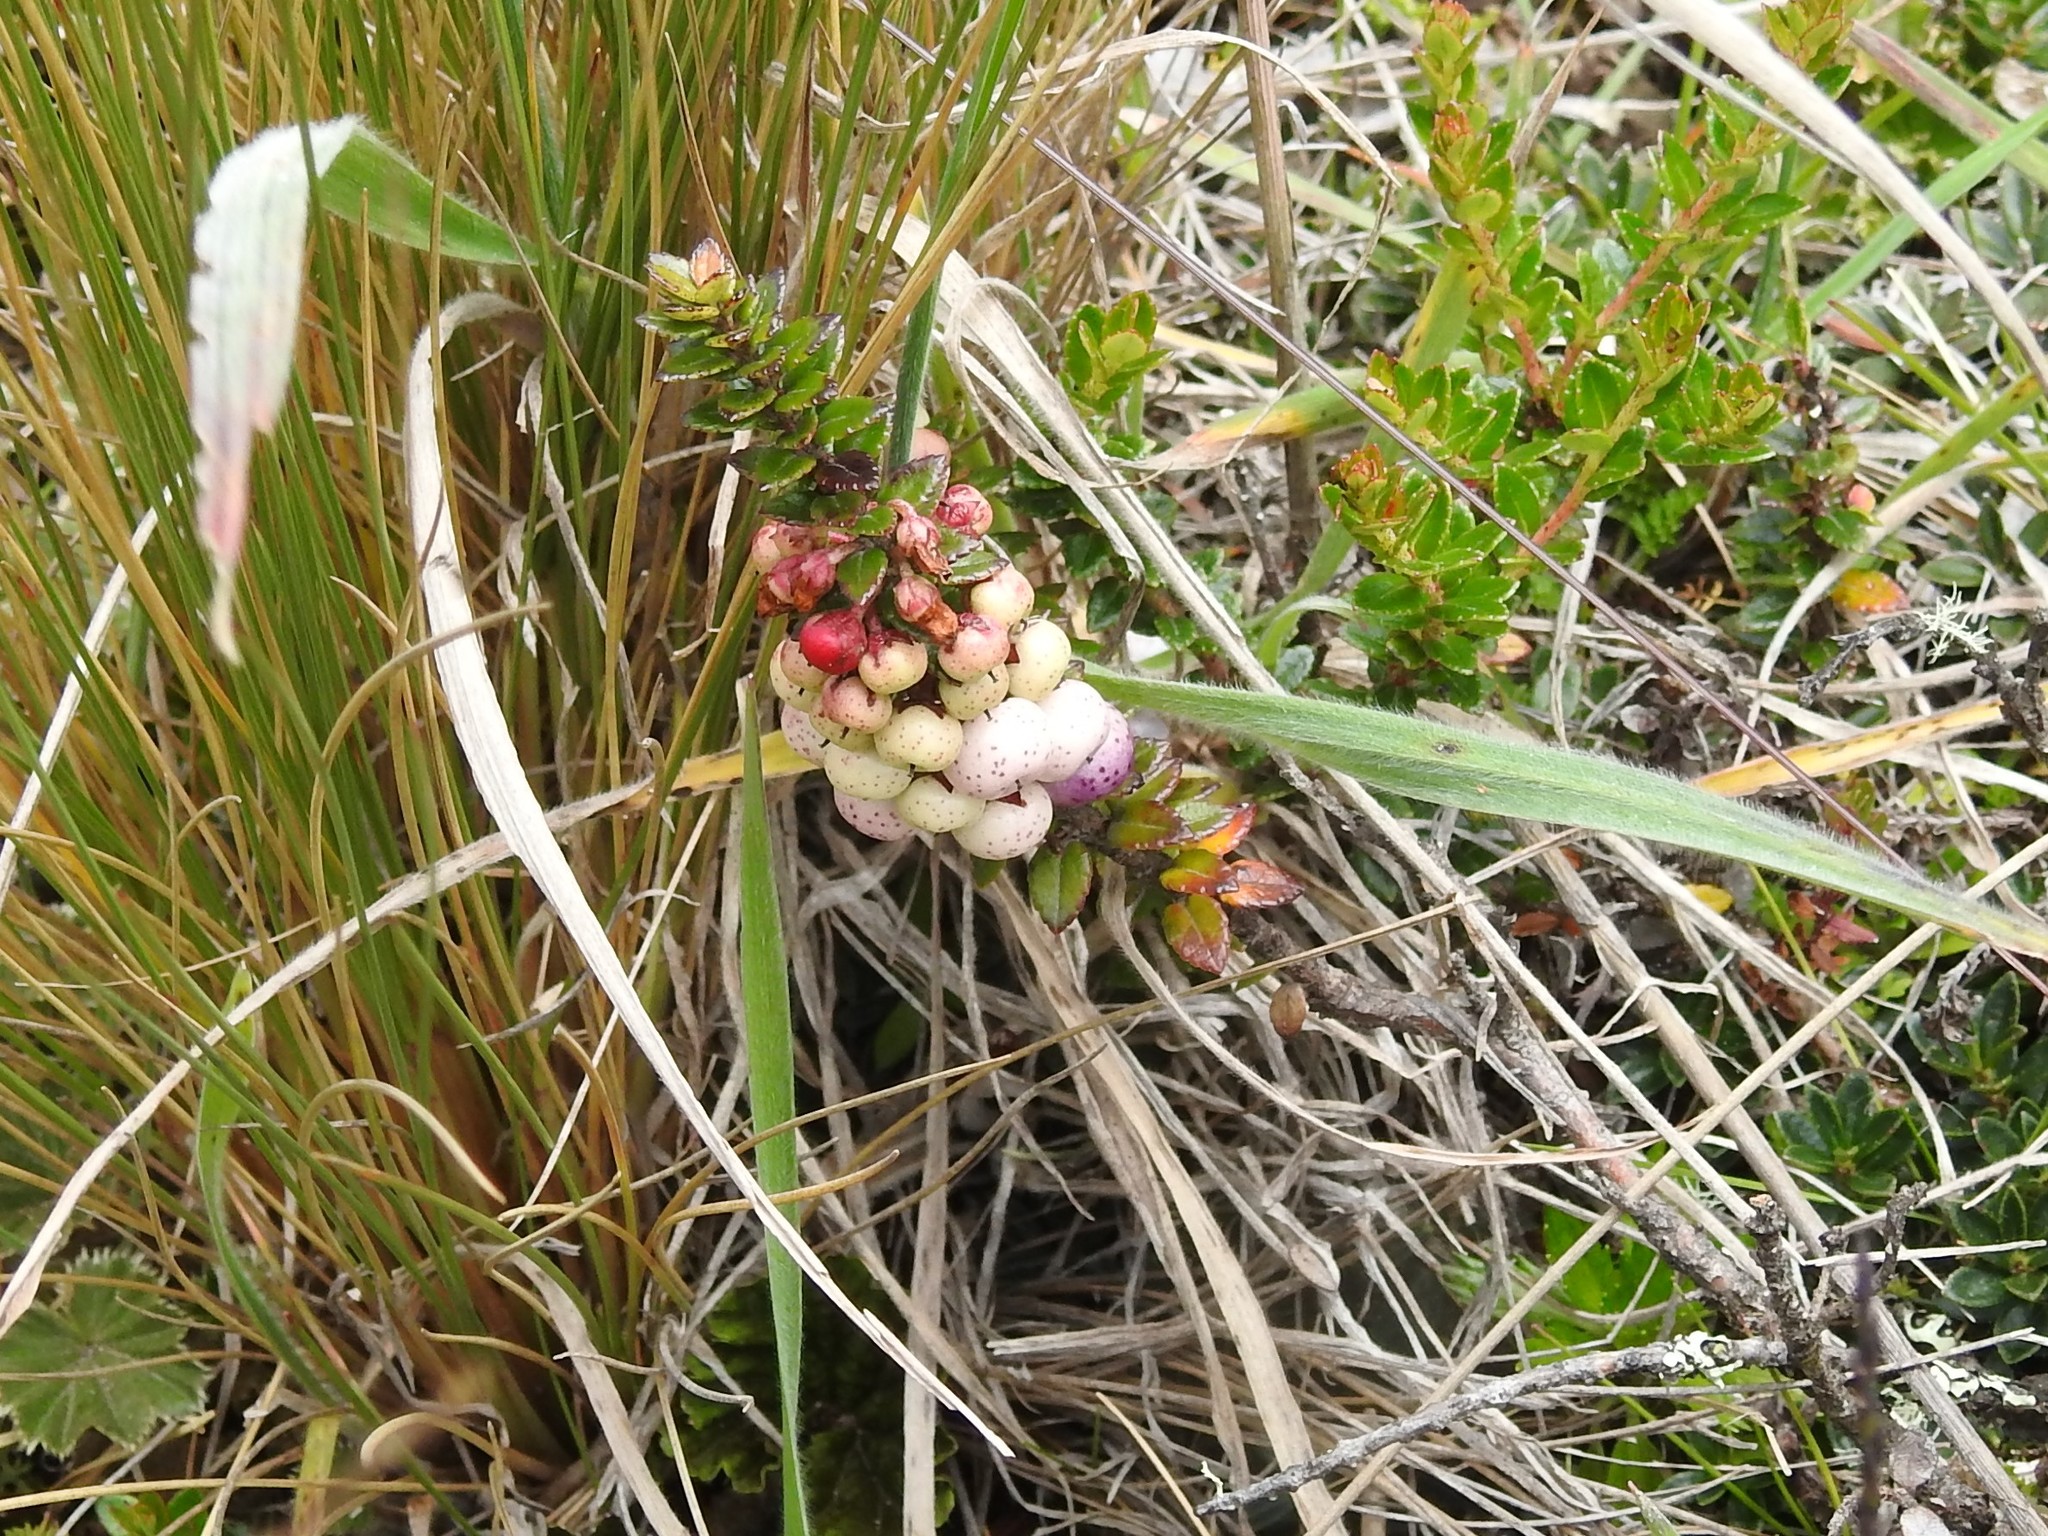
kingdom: Plantae
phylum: Tracheophyta
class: Magnoliopsida
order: Ericales
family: Ericaceae
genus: Gaultheria
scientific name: Gaultheria myrsinoides
